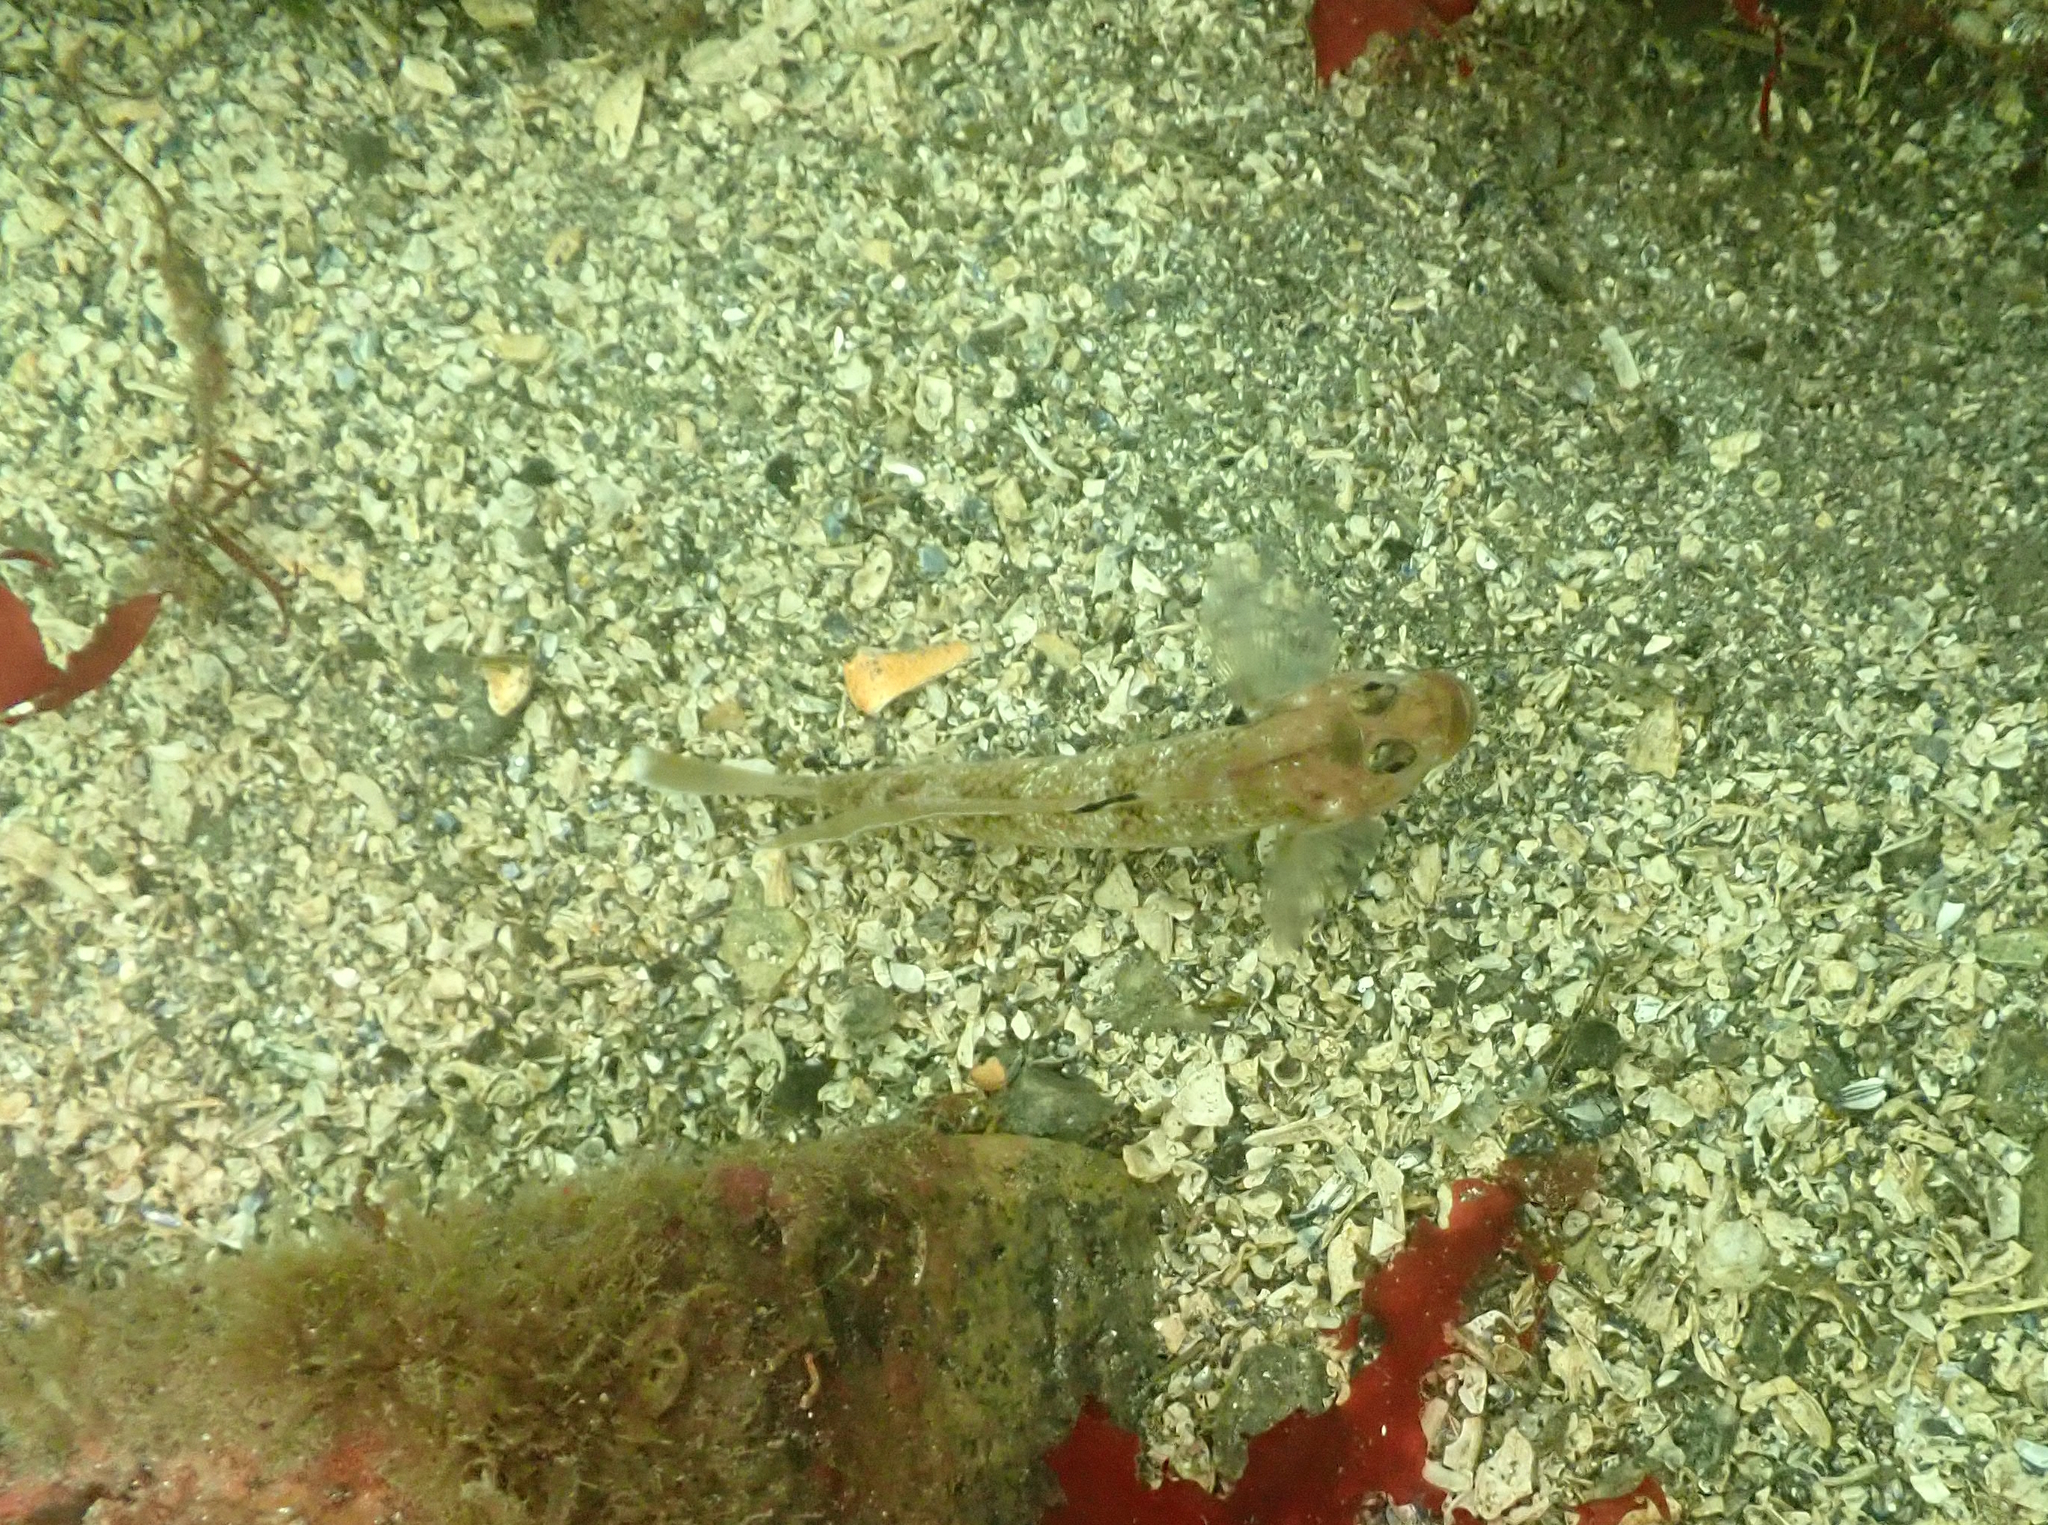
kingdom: Animalia
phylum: Chordata
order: Perciformes
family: Gobiidae
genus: Rhinogobiops
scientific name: Rhinogobiops nicholsii
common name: Blackeye goby
